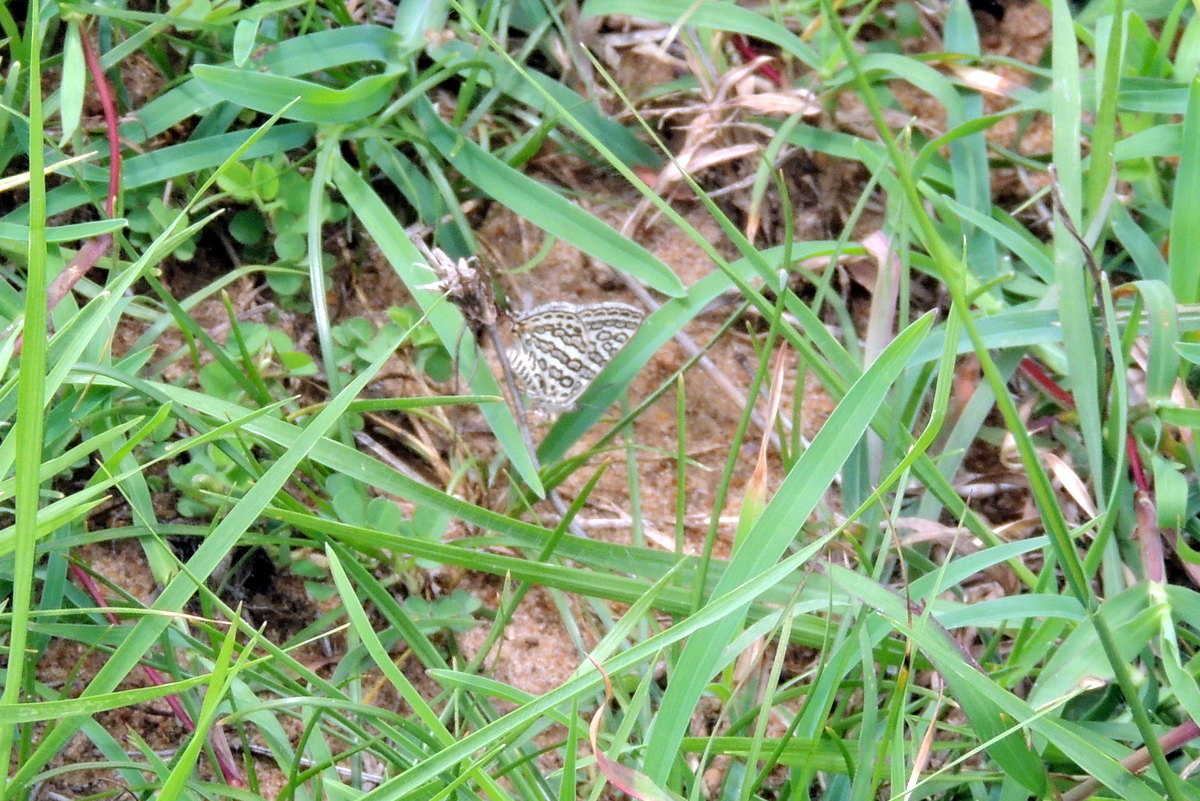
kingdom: Animalia
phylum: Arthropoda
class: Insecta
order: Lepidoptera
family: Lycaenidae
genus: Aphnaeus
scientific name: Aphnaeus lilacinus
